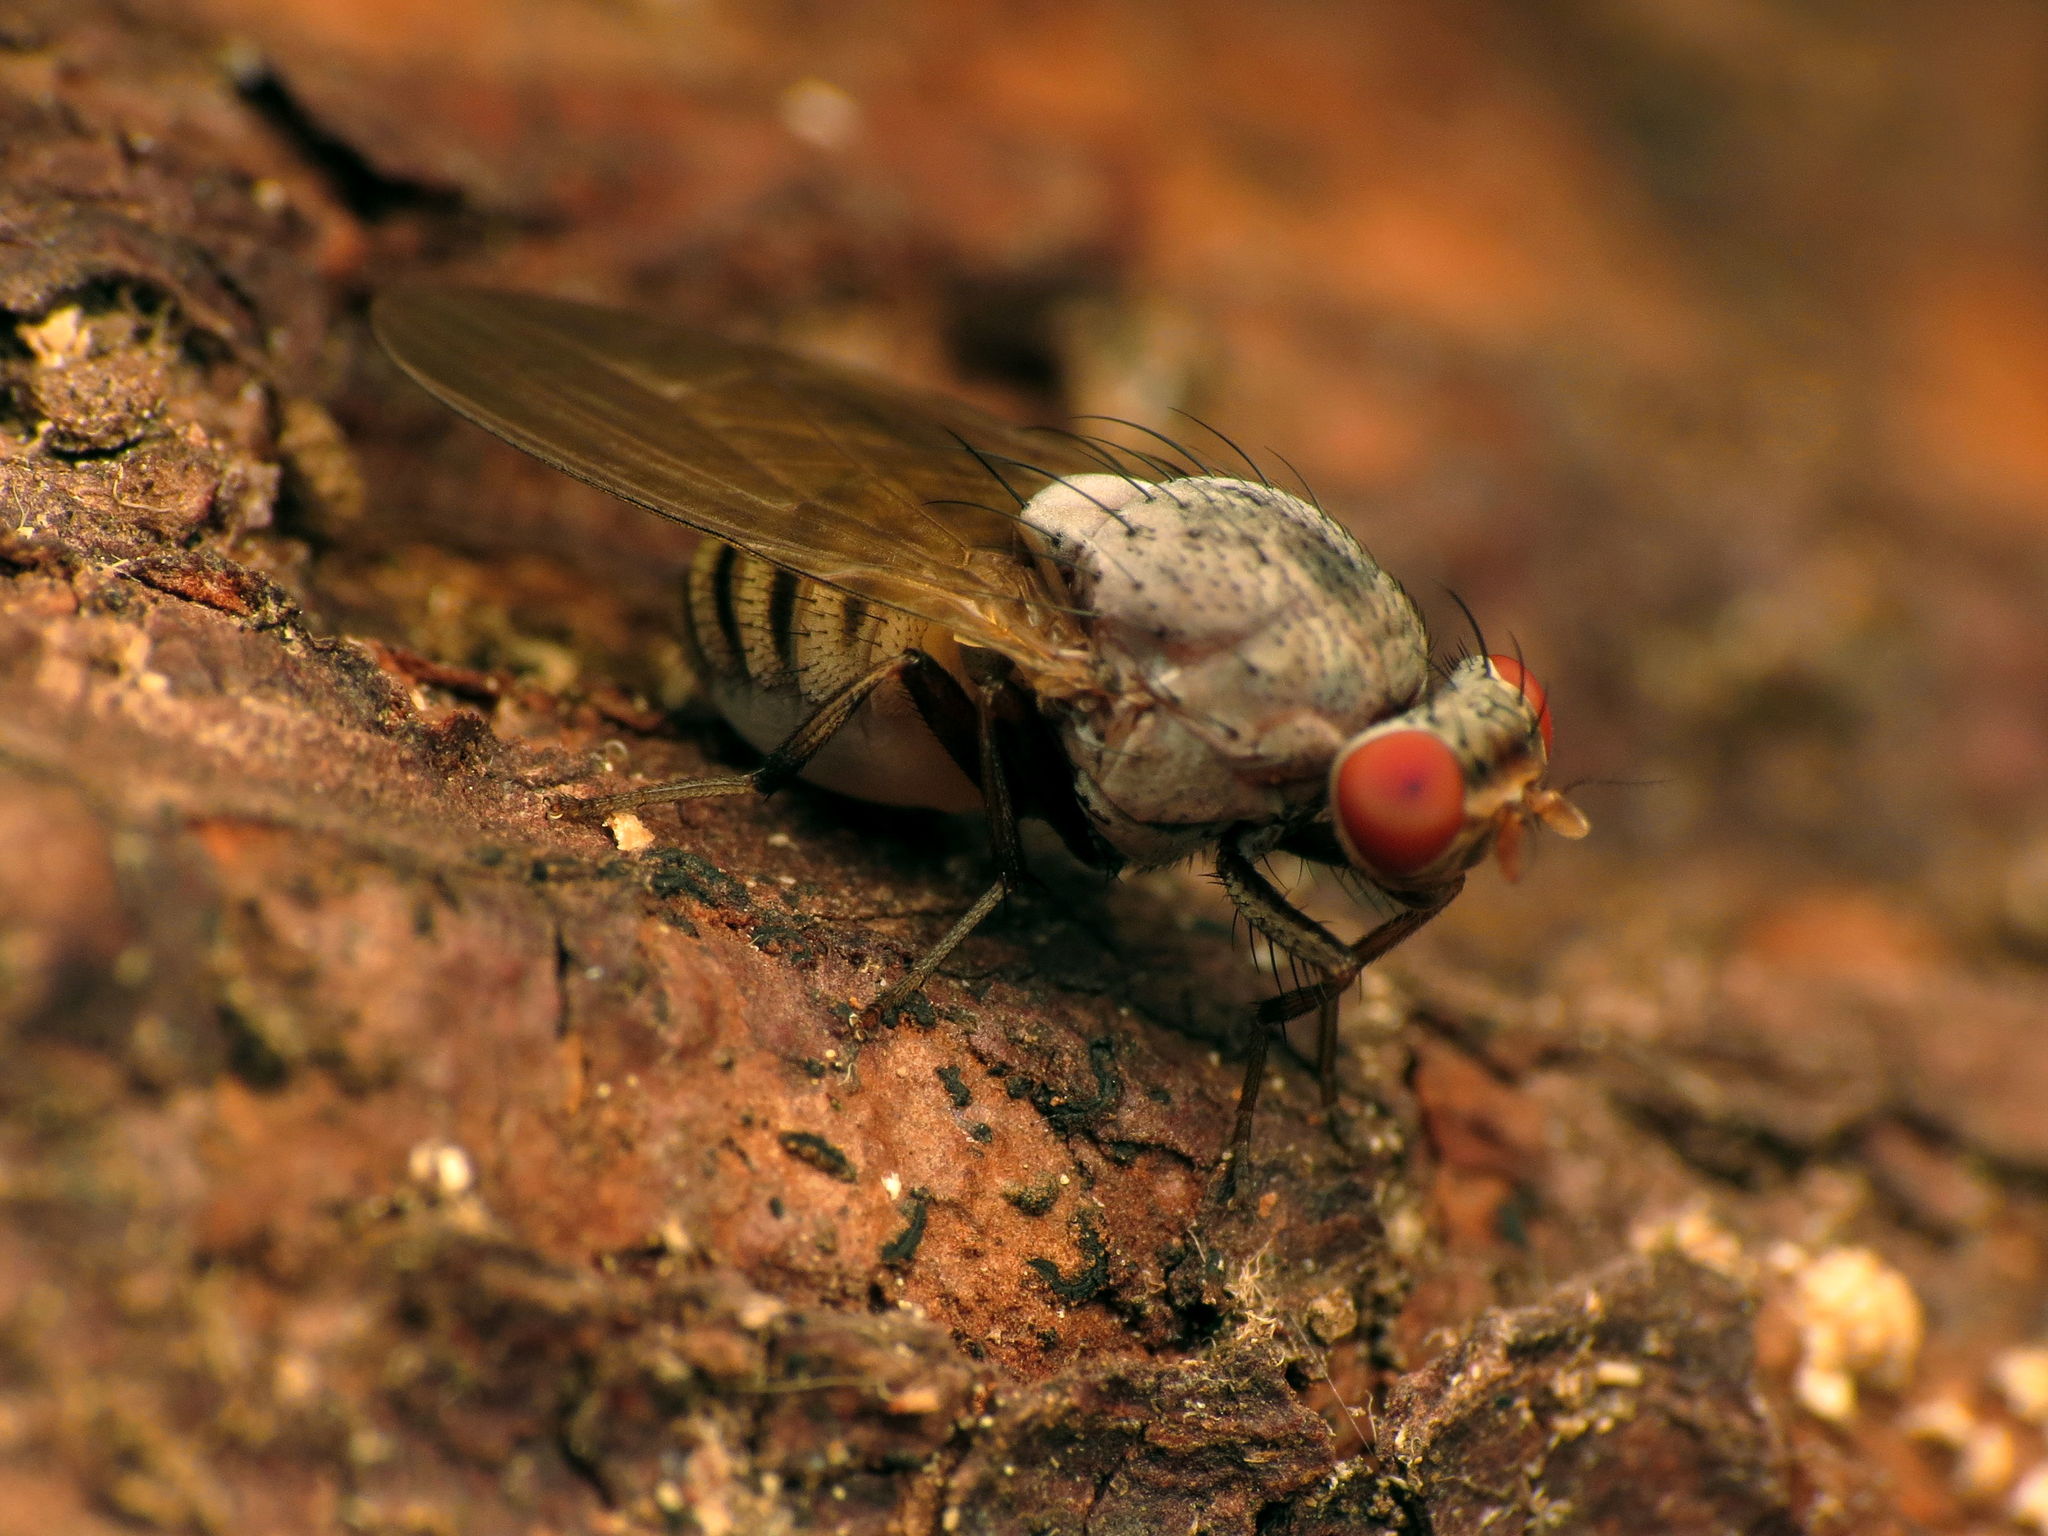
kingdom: Animalia
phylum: Arthropoda
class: Insecta
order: Diptera
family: Lauxaniidae
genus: Minettia
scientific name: Minettia magna
